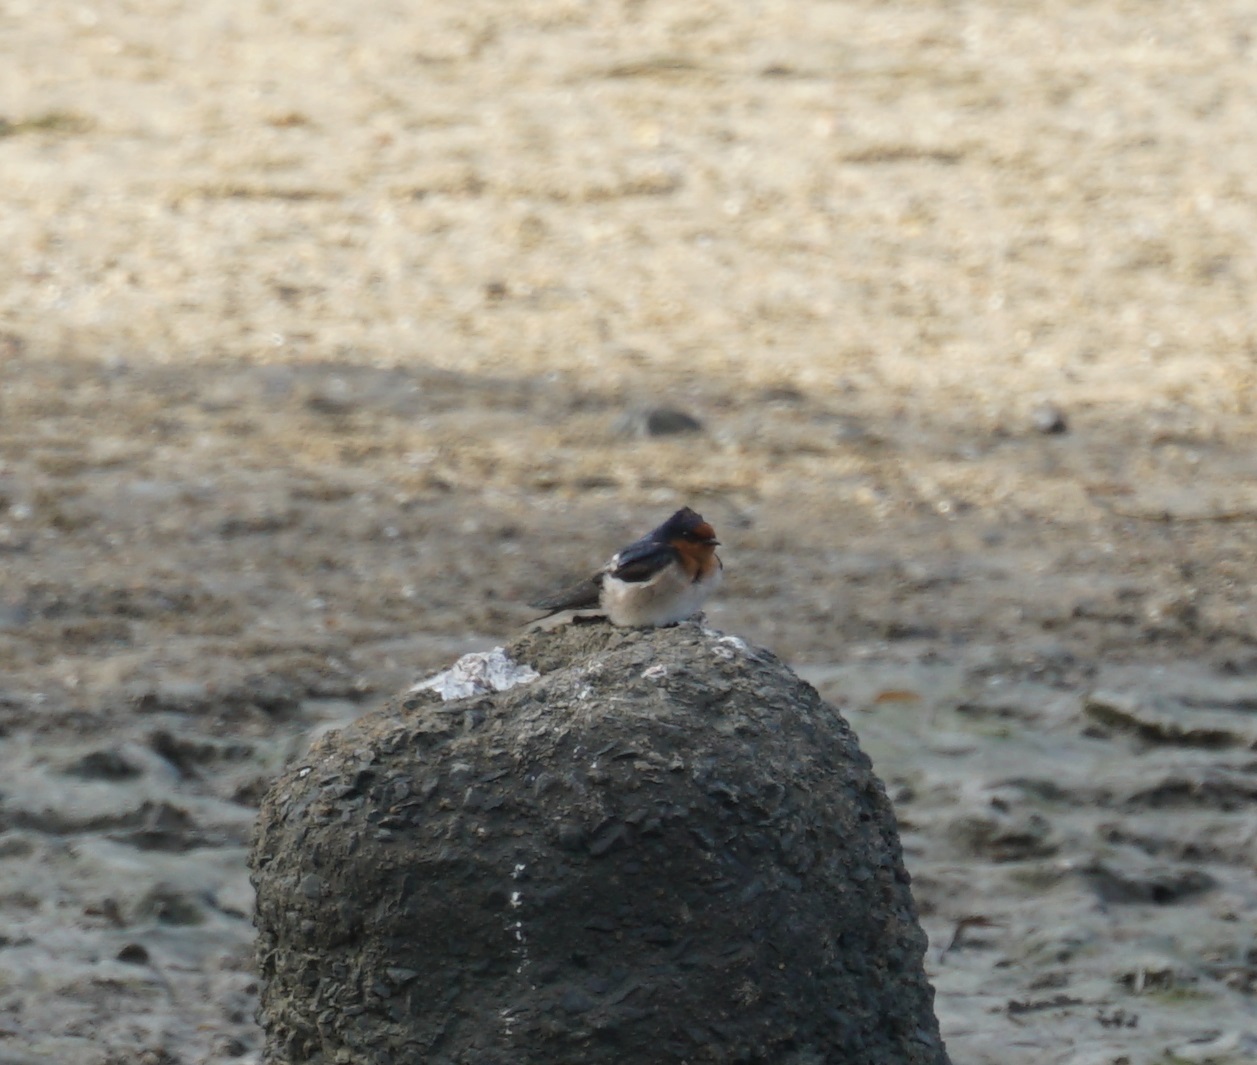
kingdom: Animalia
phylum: Chordata
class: Aves
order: Passeriformes
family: Hirundinidae
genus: Hirundo
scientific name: Hirundo neoxena
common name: Welcome swallow
